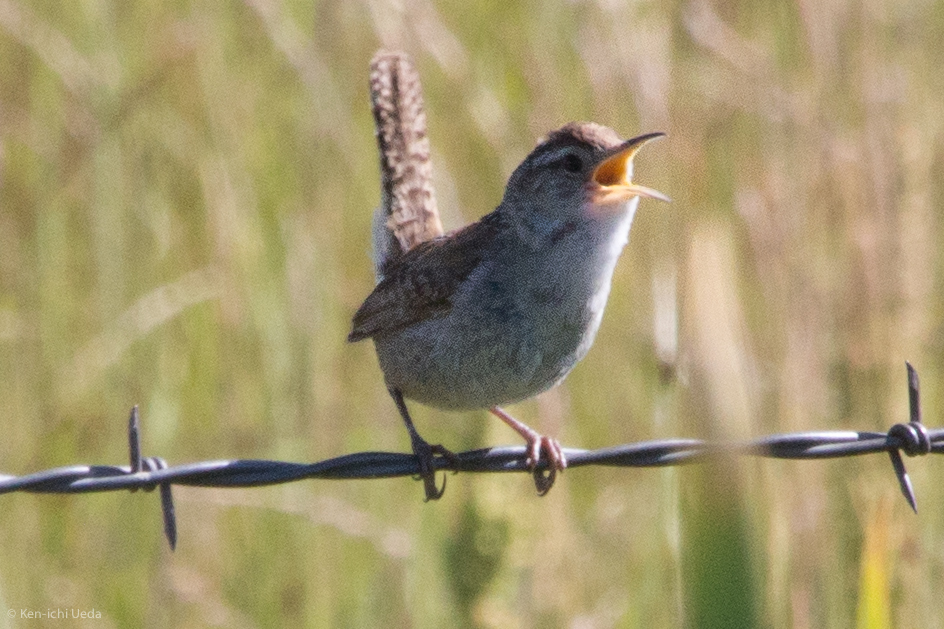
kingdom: Animalia
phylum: Chordata
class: Aves
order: Passeriformes
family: Troglodytidae
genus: Cistothorus
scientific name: Cistothorus palustris
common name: Marsh wren
